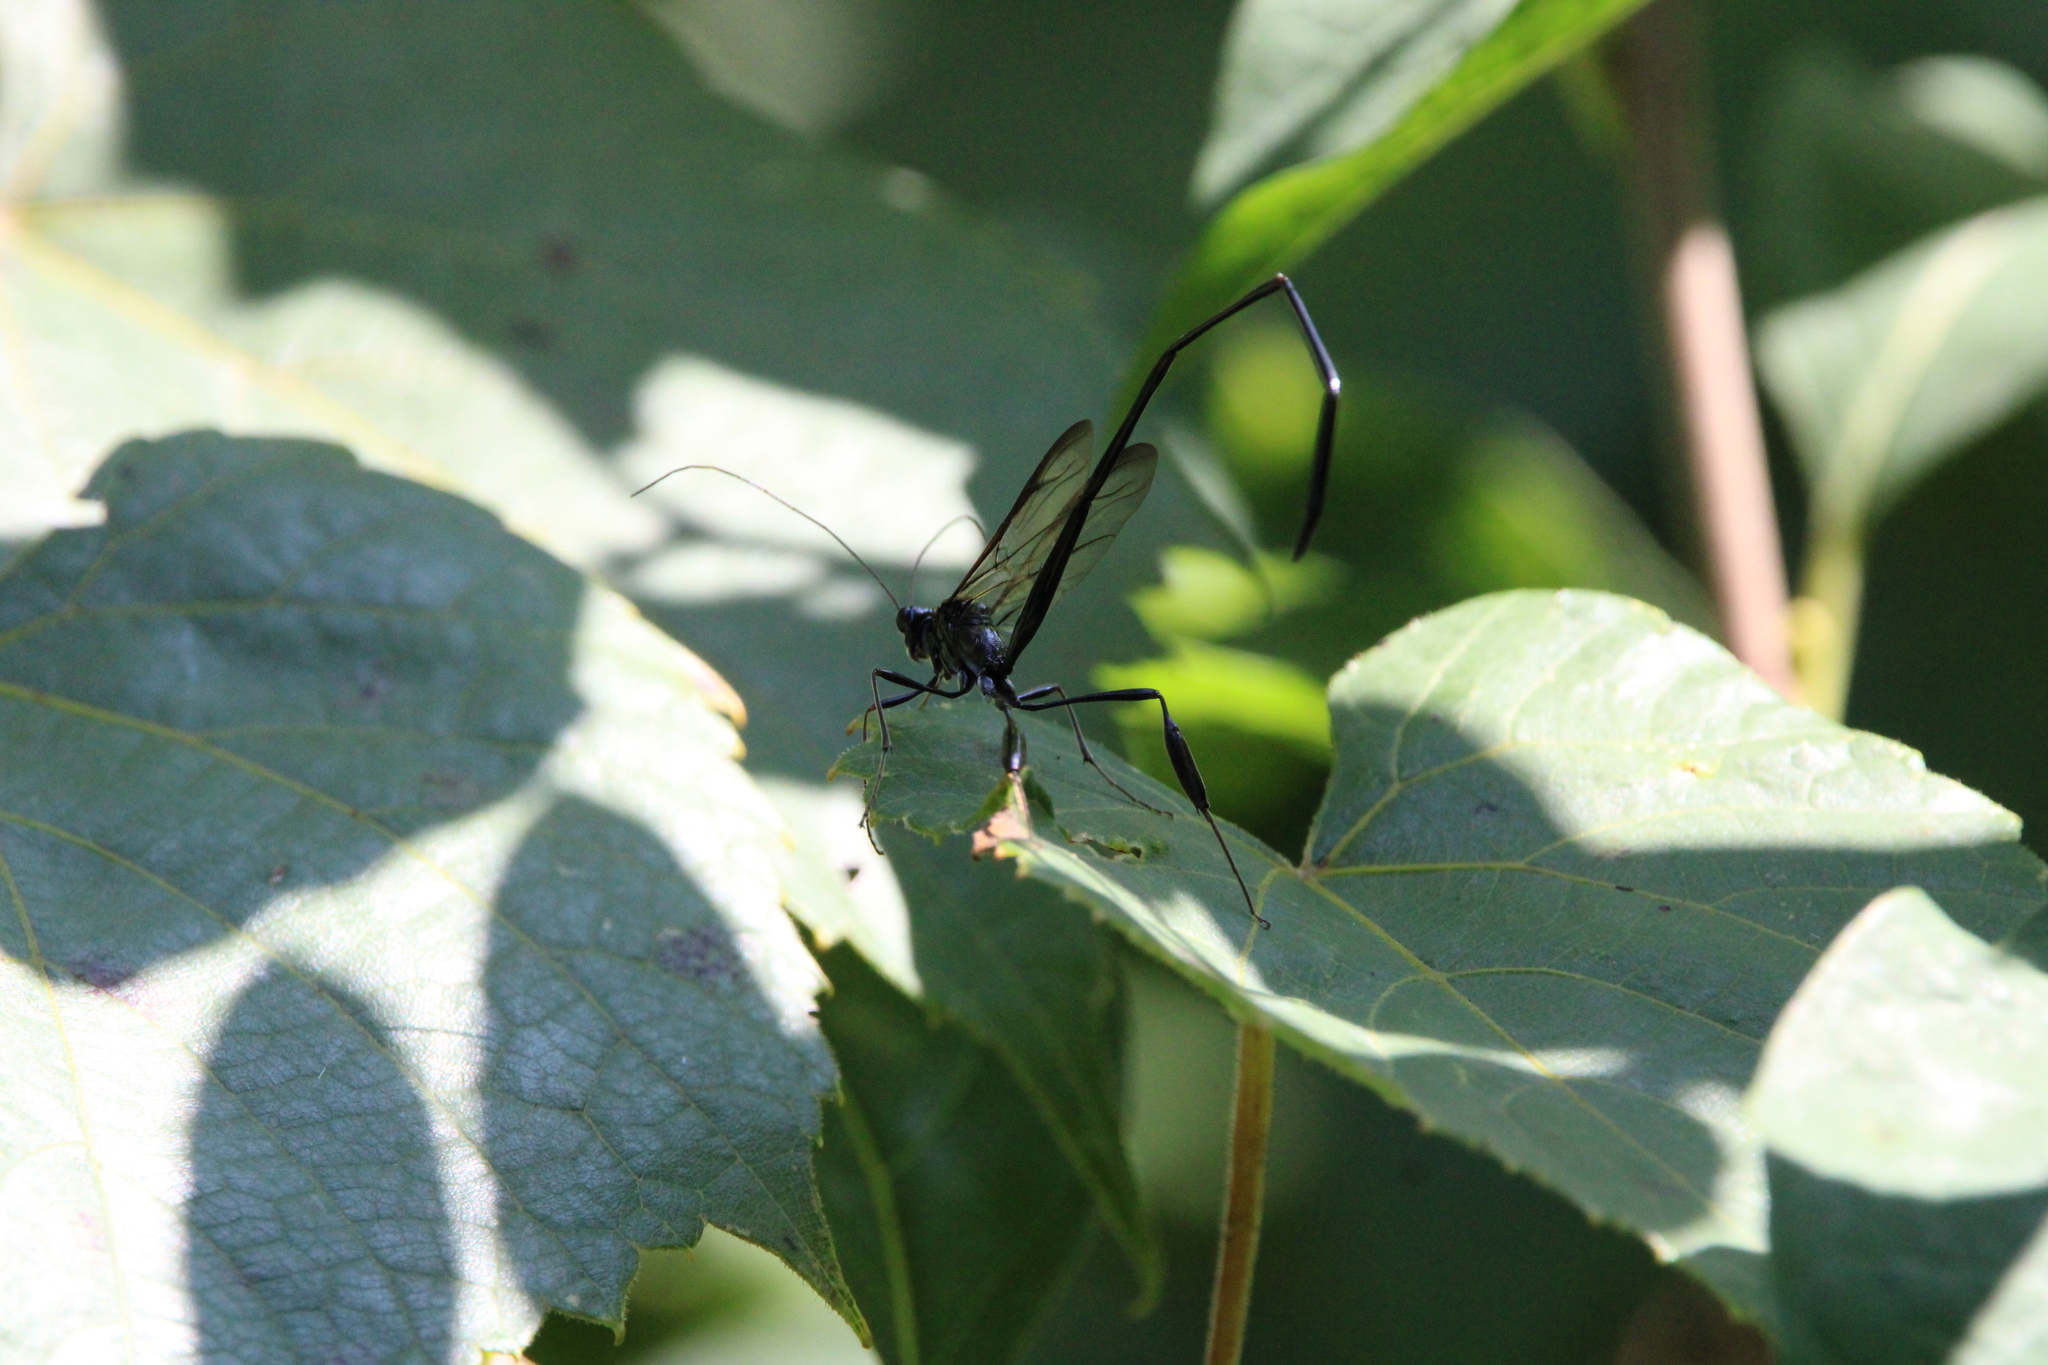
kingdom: Animalia
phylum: Arthropoda
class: Insecta
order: Hymenoptera
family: Pelecinidae
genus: Pelecinus
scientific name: Pelecinus polyturator
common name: American pelecinid wasp
